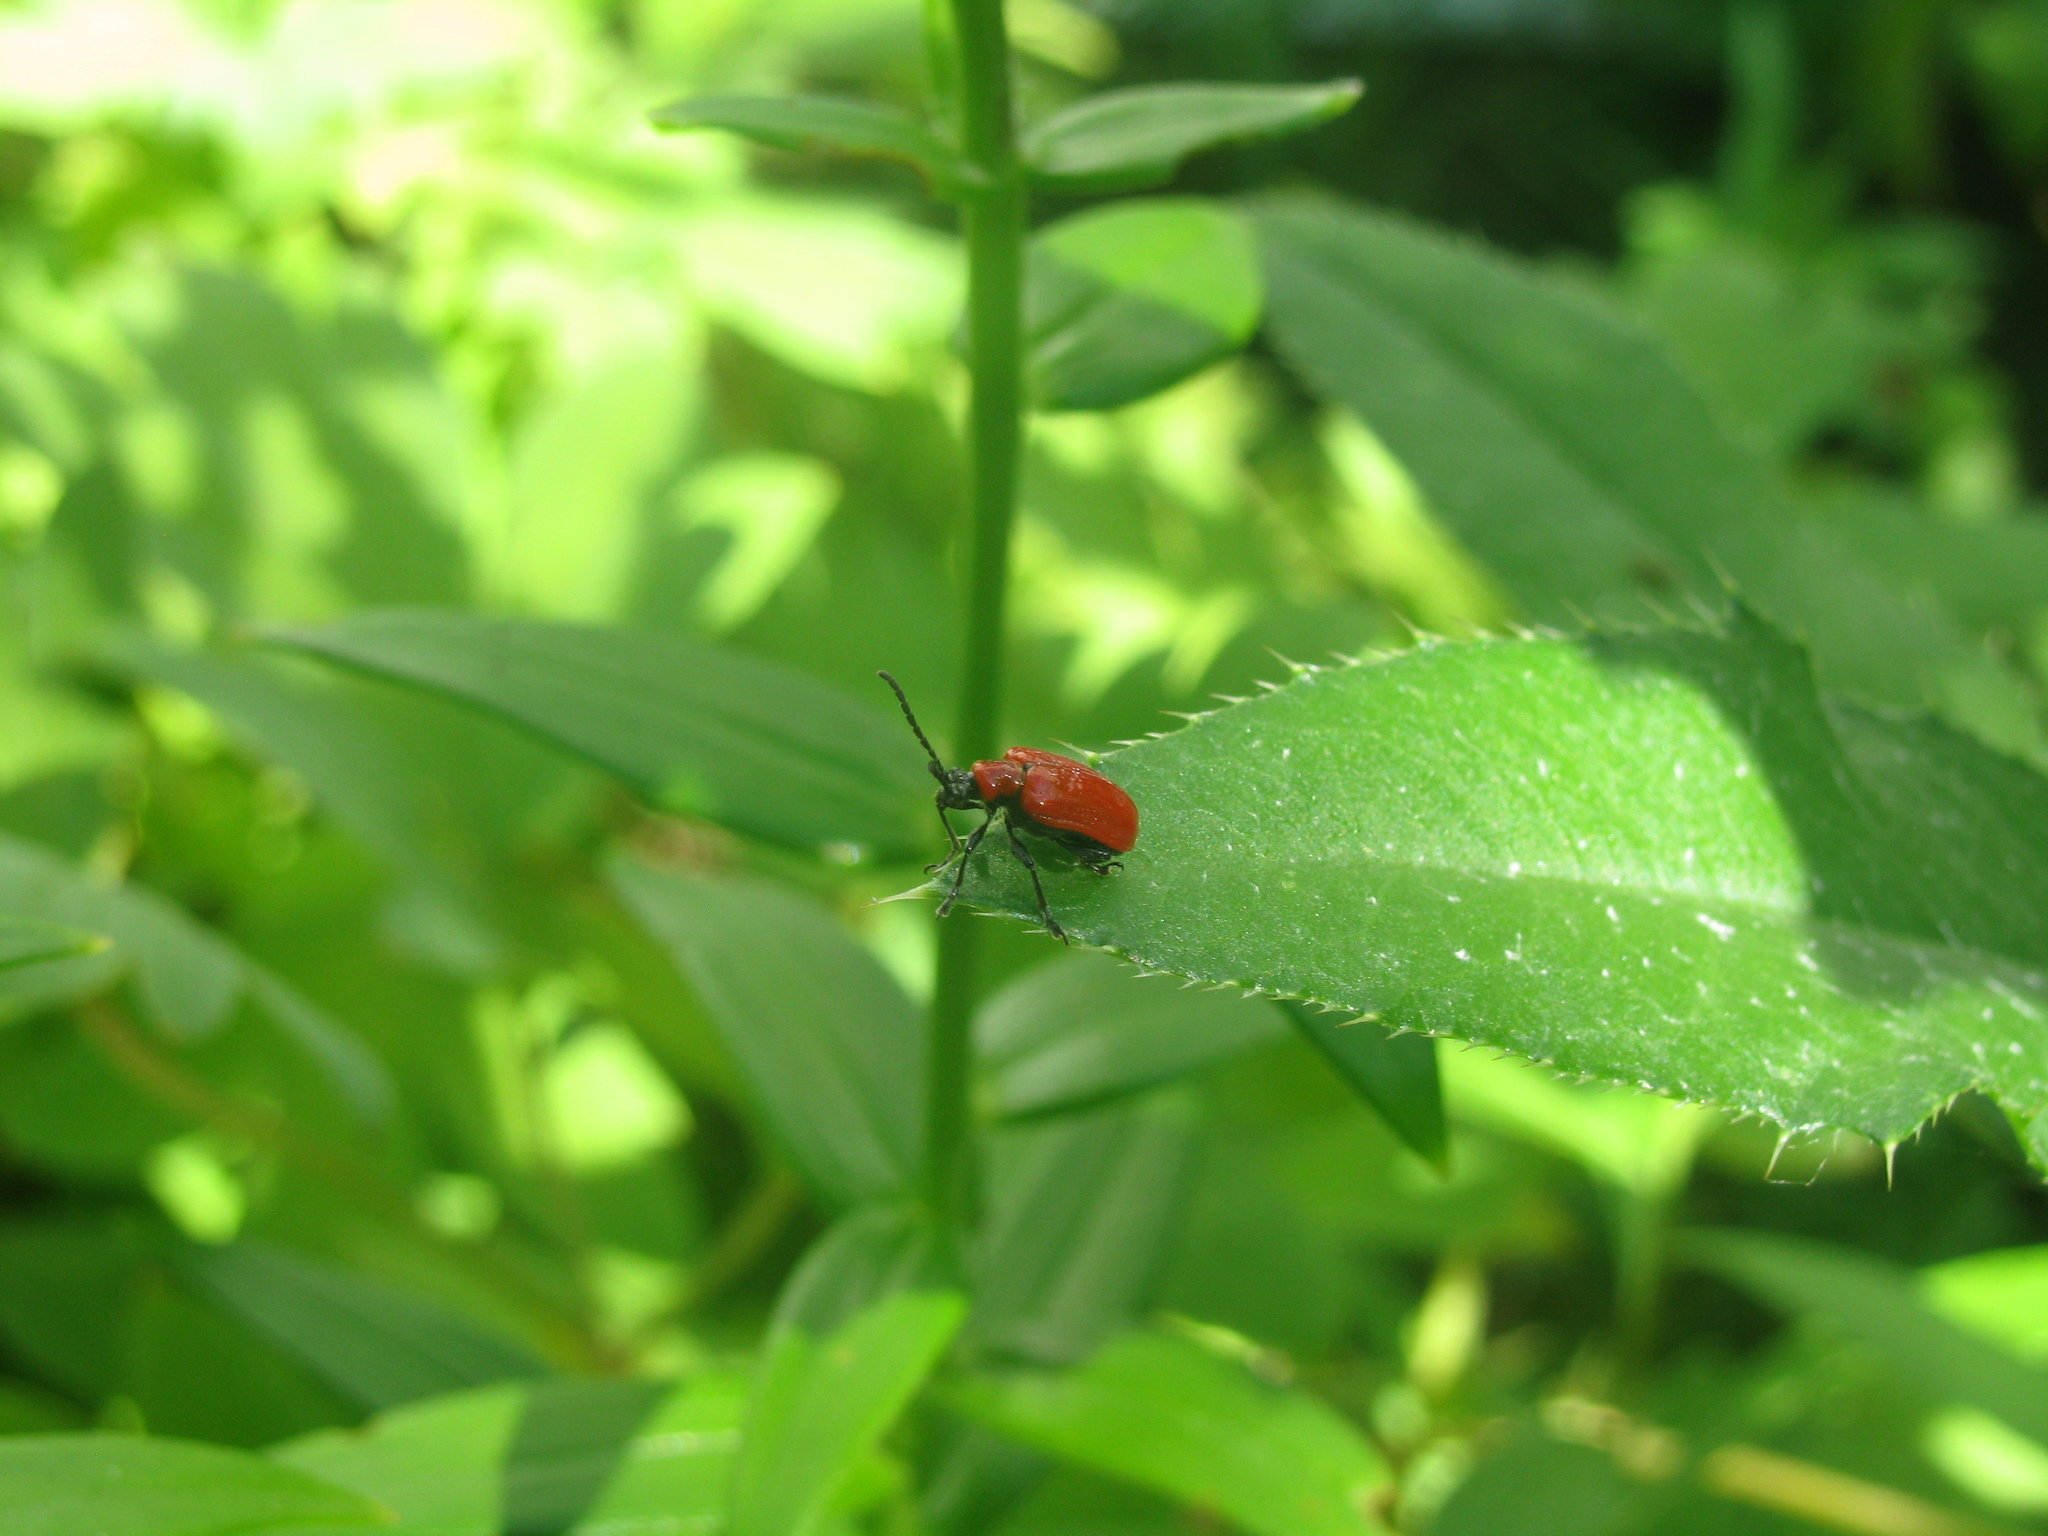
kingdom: Animalia
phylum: Arthropoda
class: Insecta
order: Coleoptera
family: Chrysomelidae
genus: Lilioceris
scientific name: Lilioceris lilii
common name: Lily beetle
